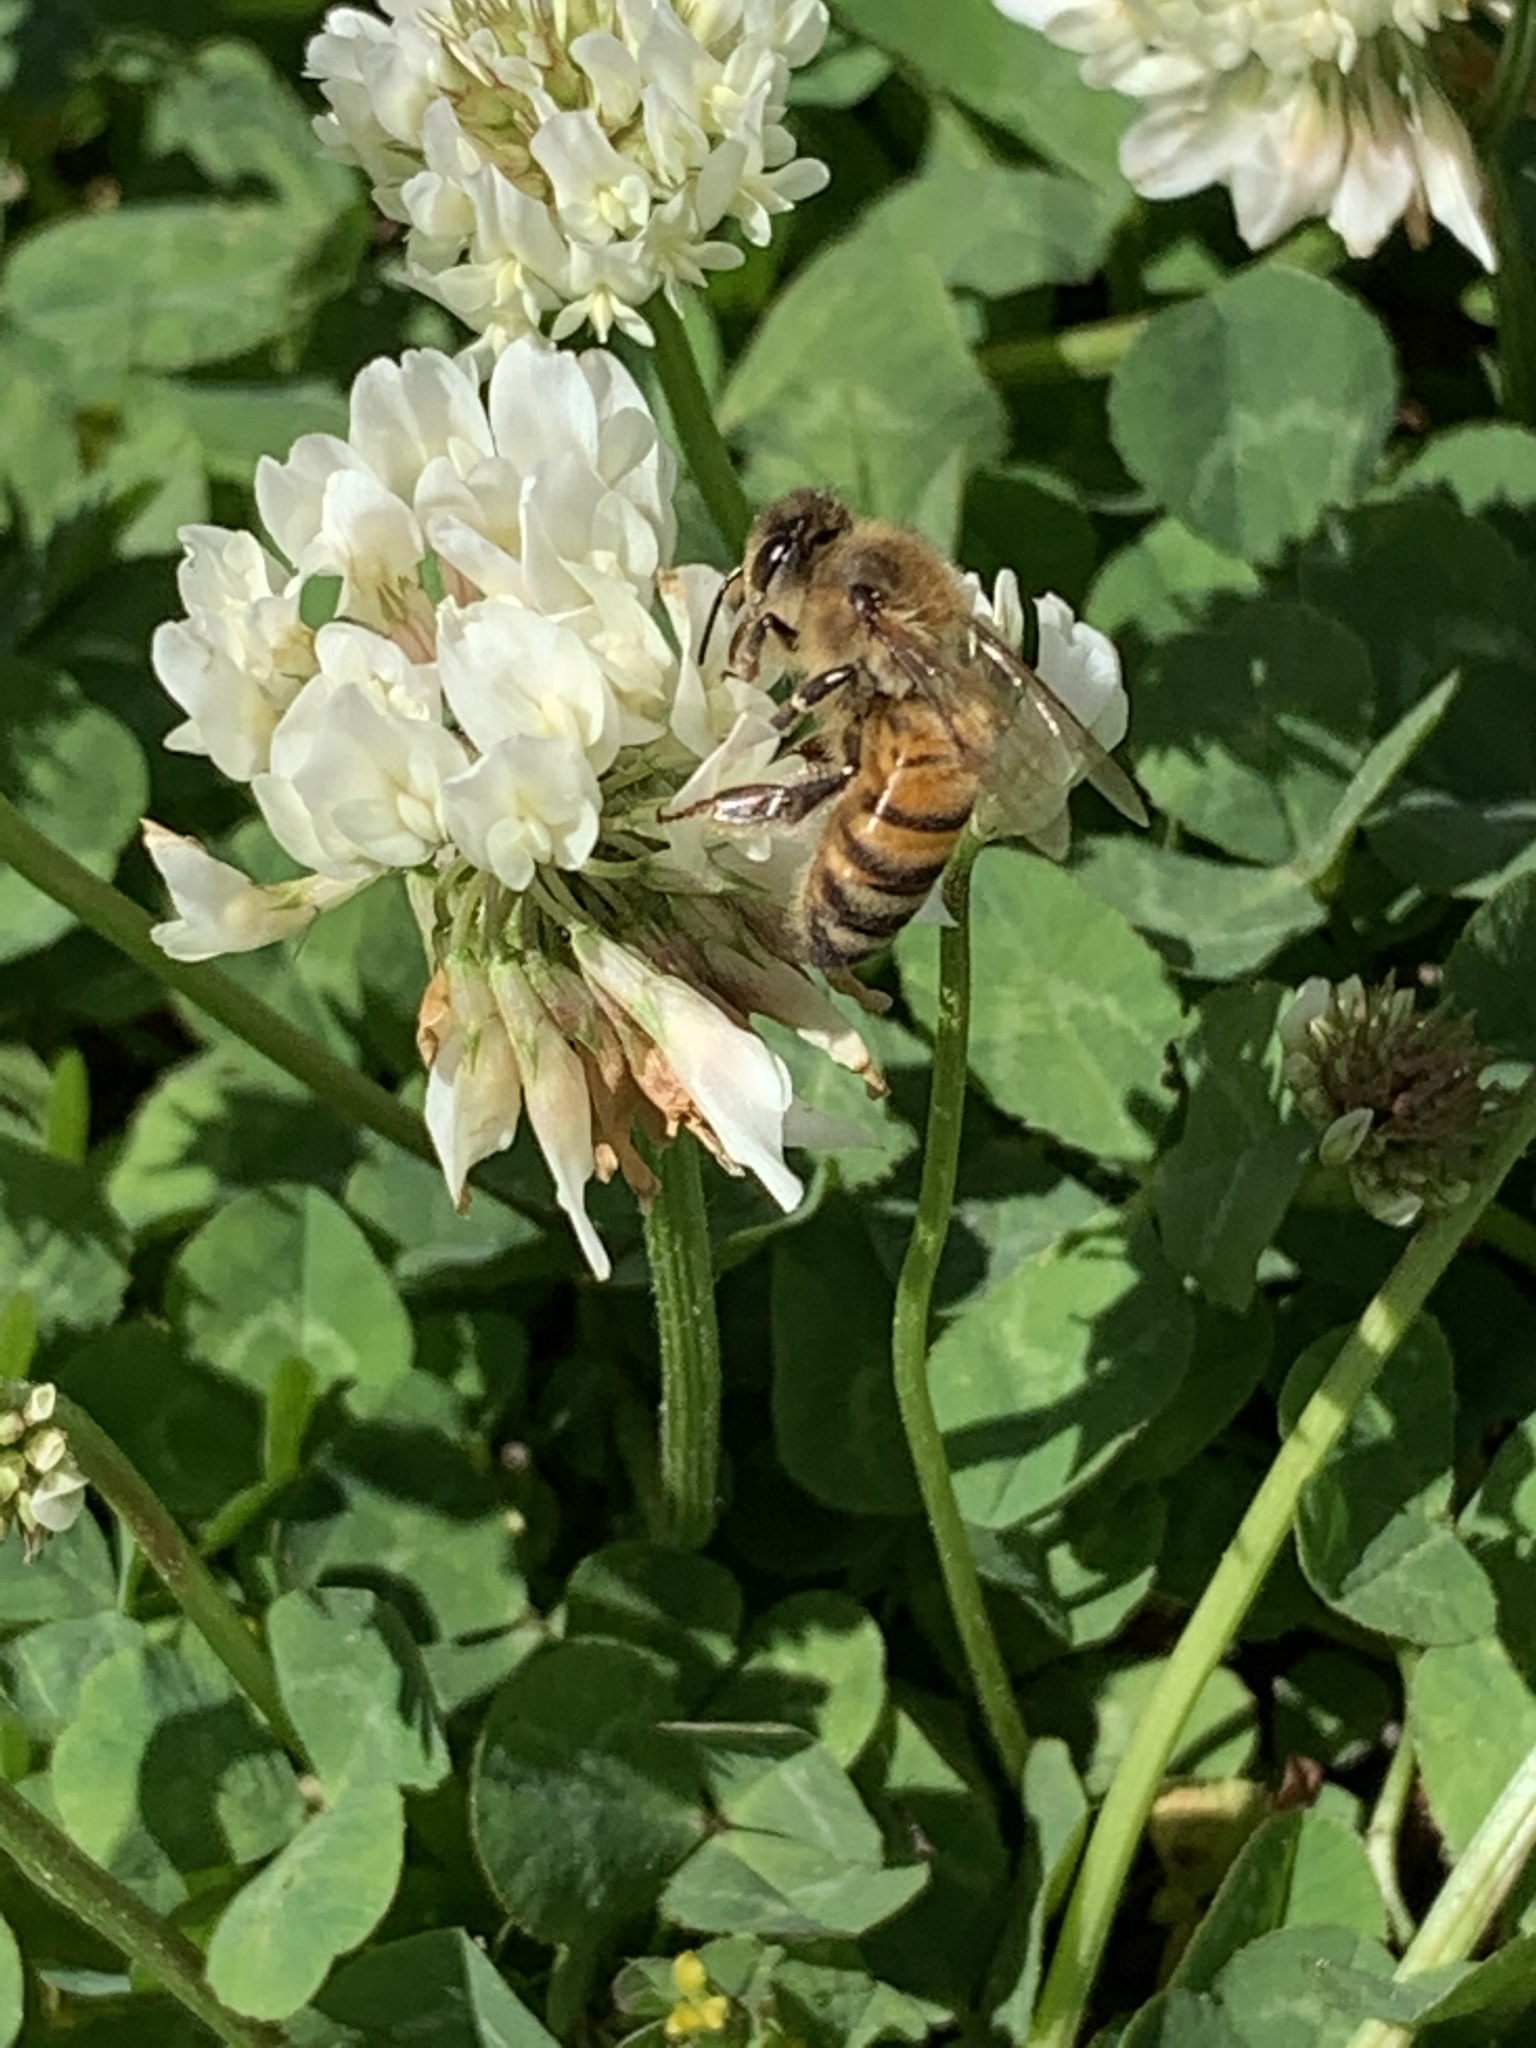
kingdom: Animalia
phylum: Arthropoda
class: Insecta
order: Hymenoptera
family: Apidae
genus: Apis
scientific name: Apis mellifera
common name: Honey bee
